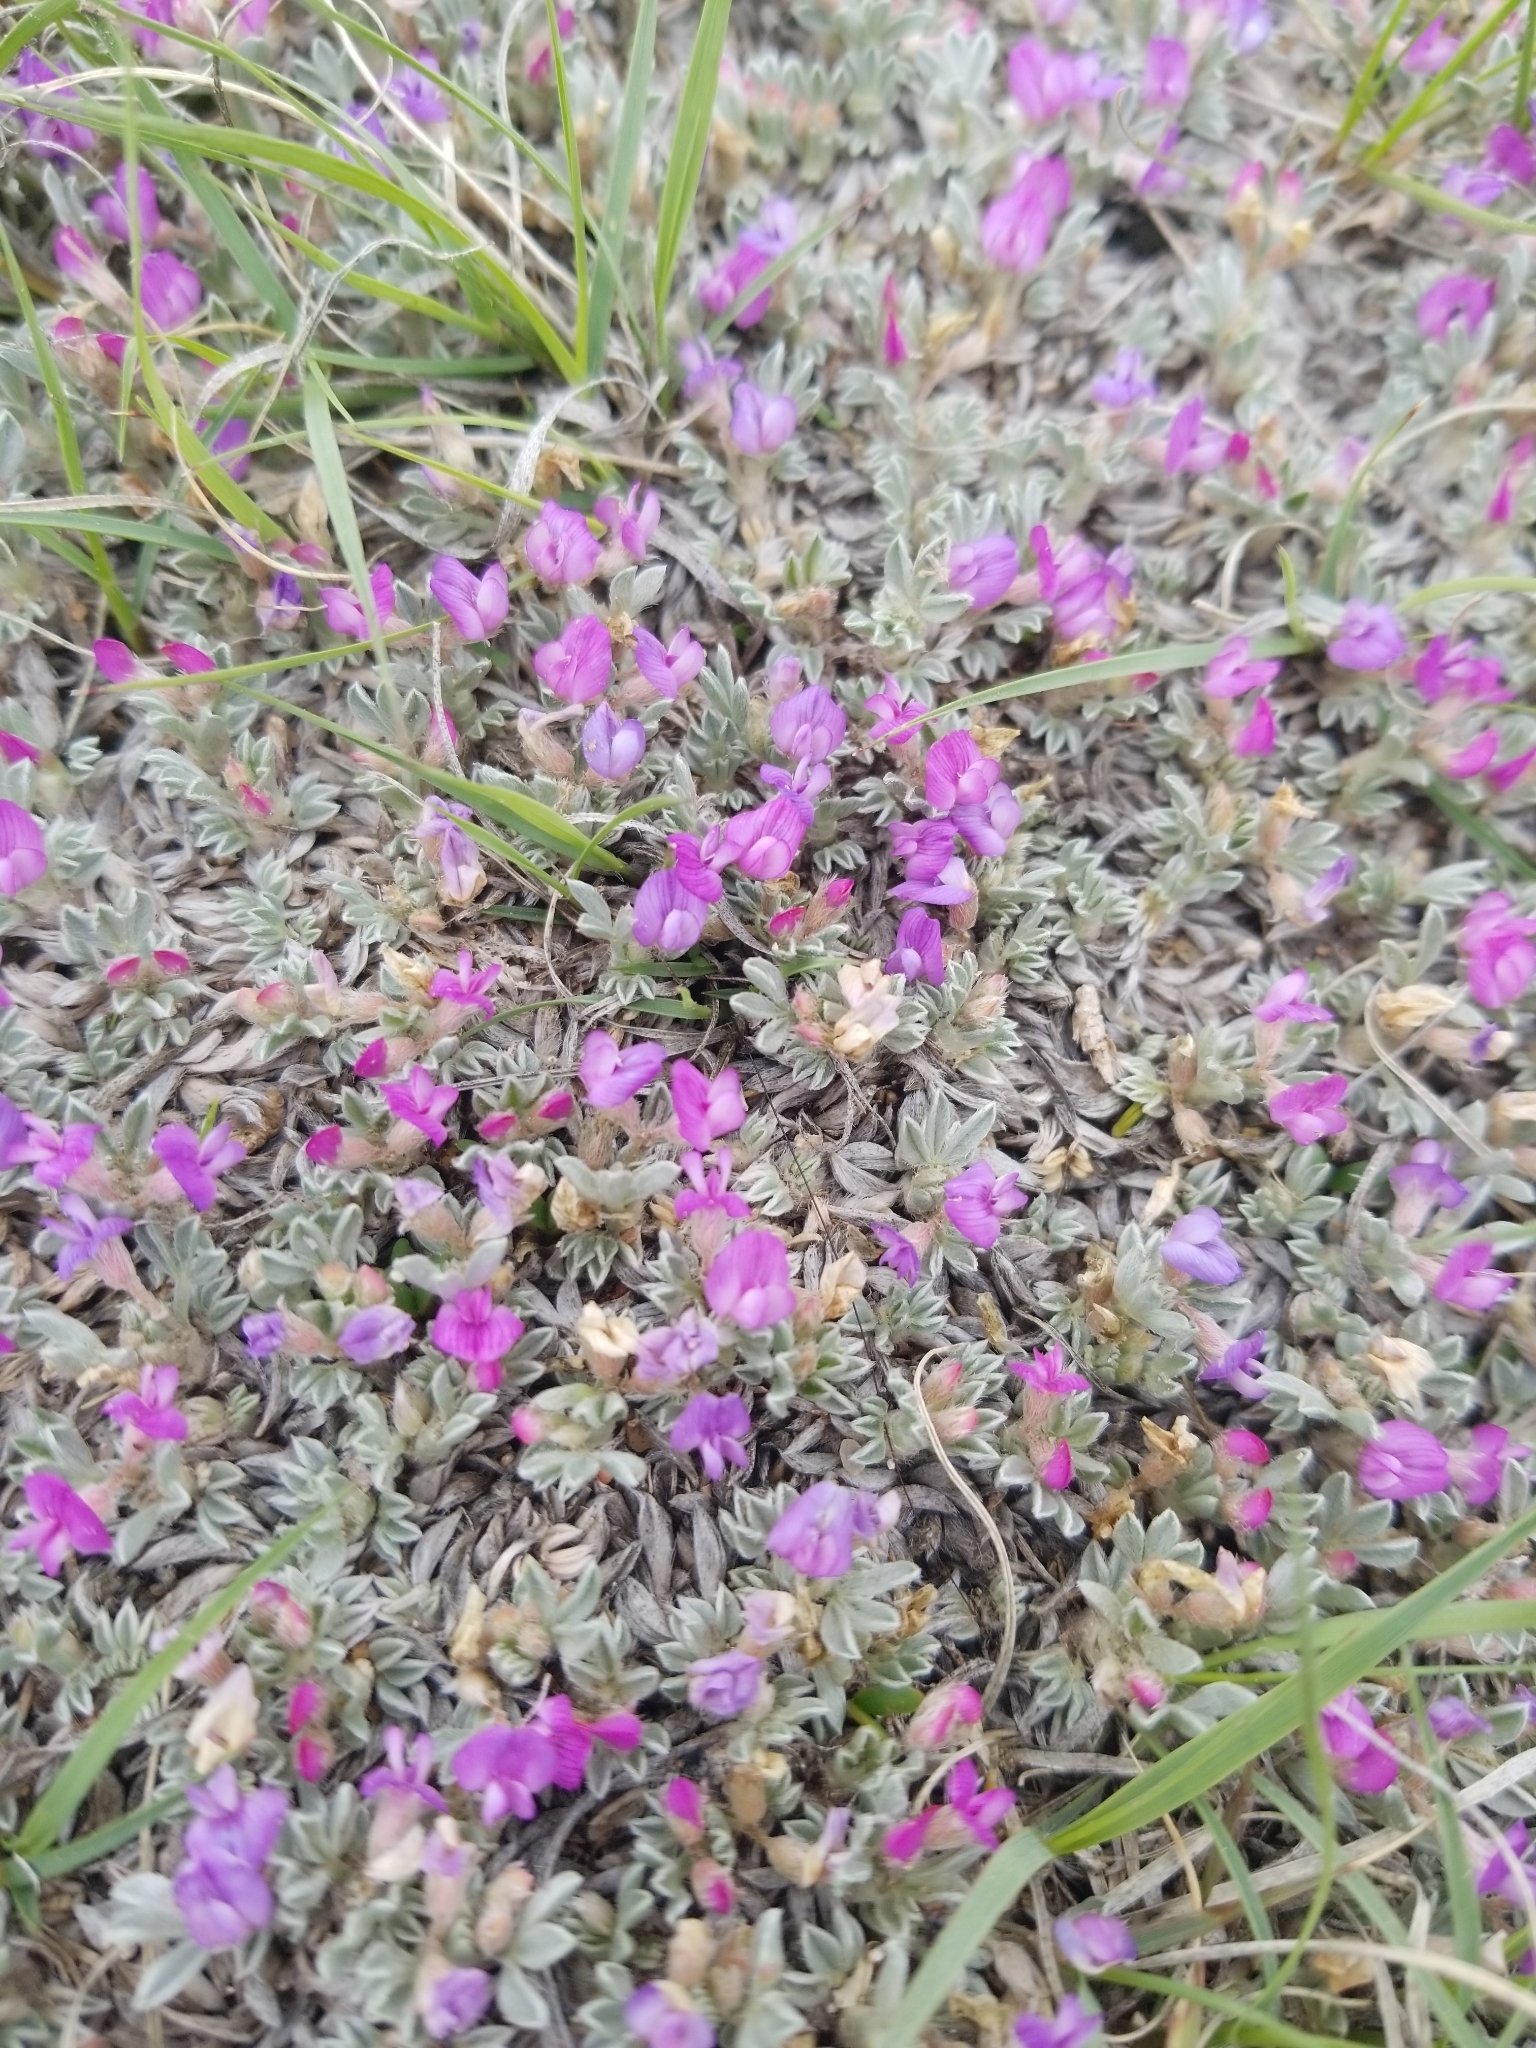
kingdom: Plantae
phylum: Tracheophyta
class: Magnoliopsida
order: Fabales
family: Fabaceae
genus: Astragalus
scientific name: Astragalus sericoleucus
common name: Silky orophaca
